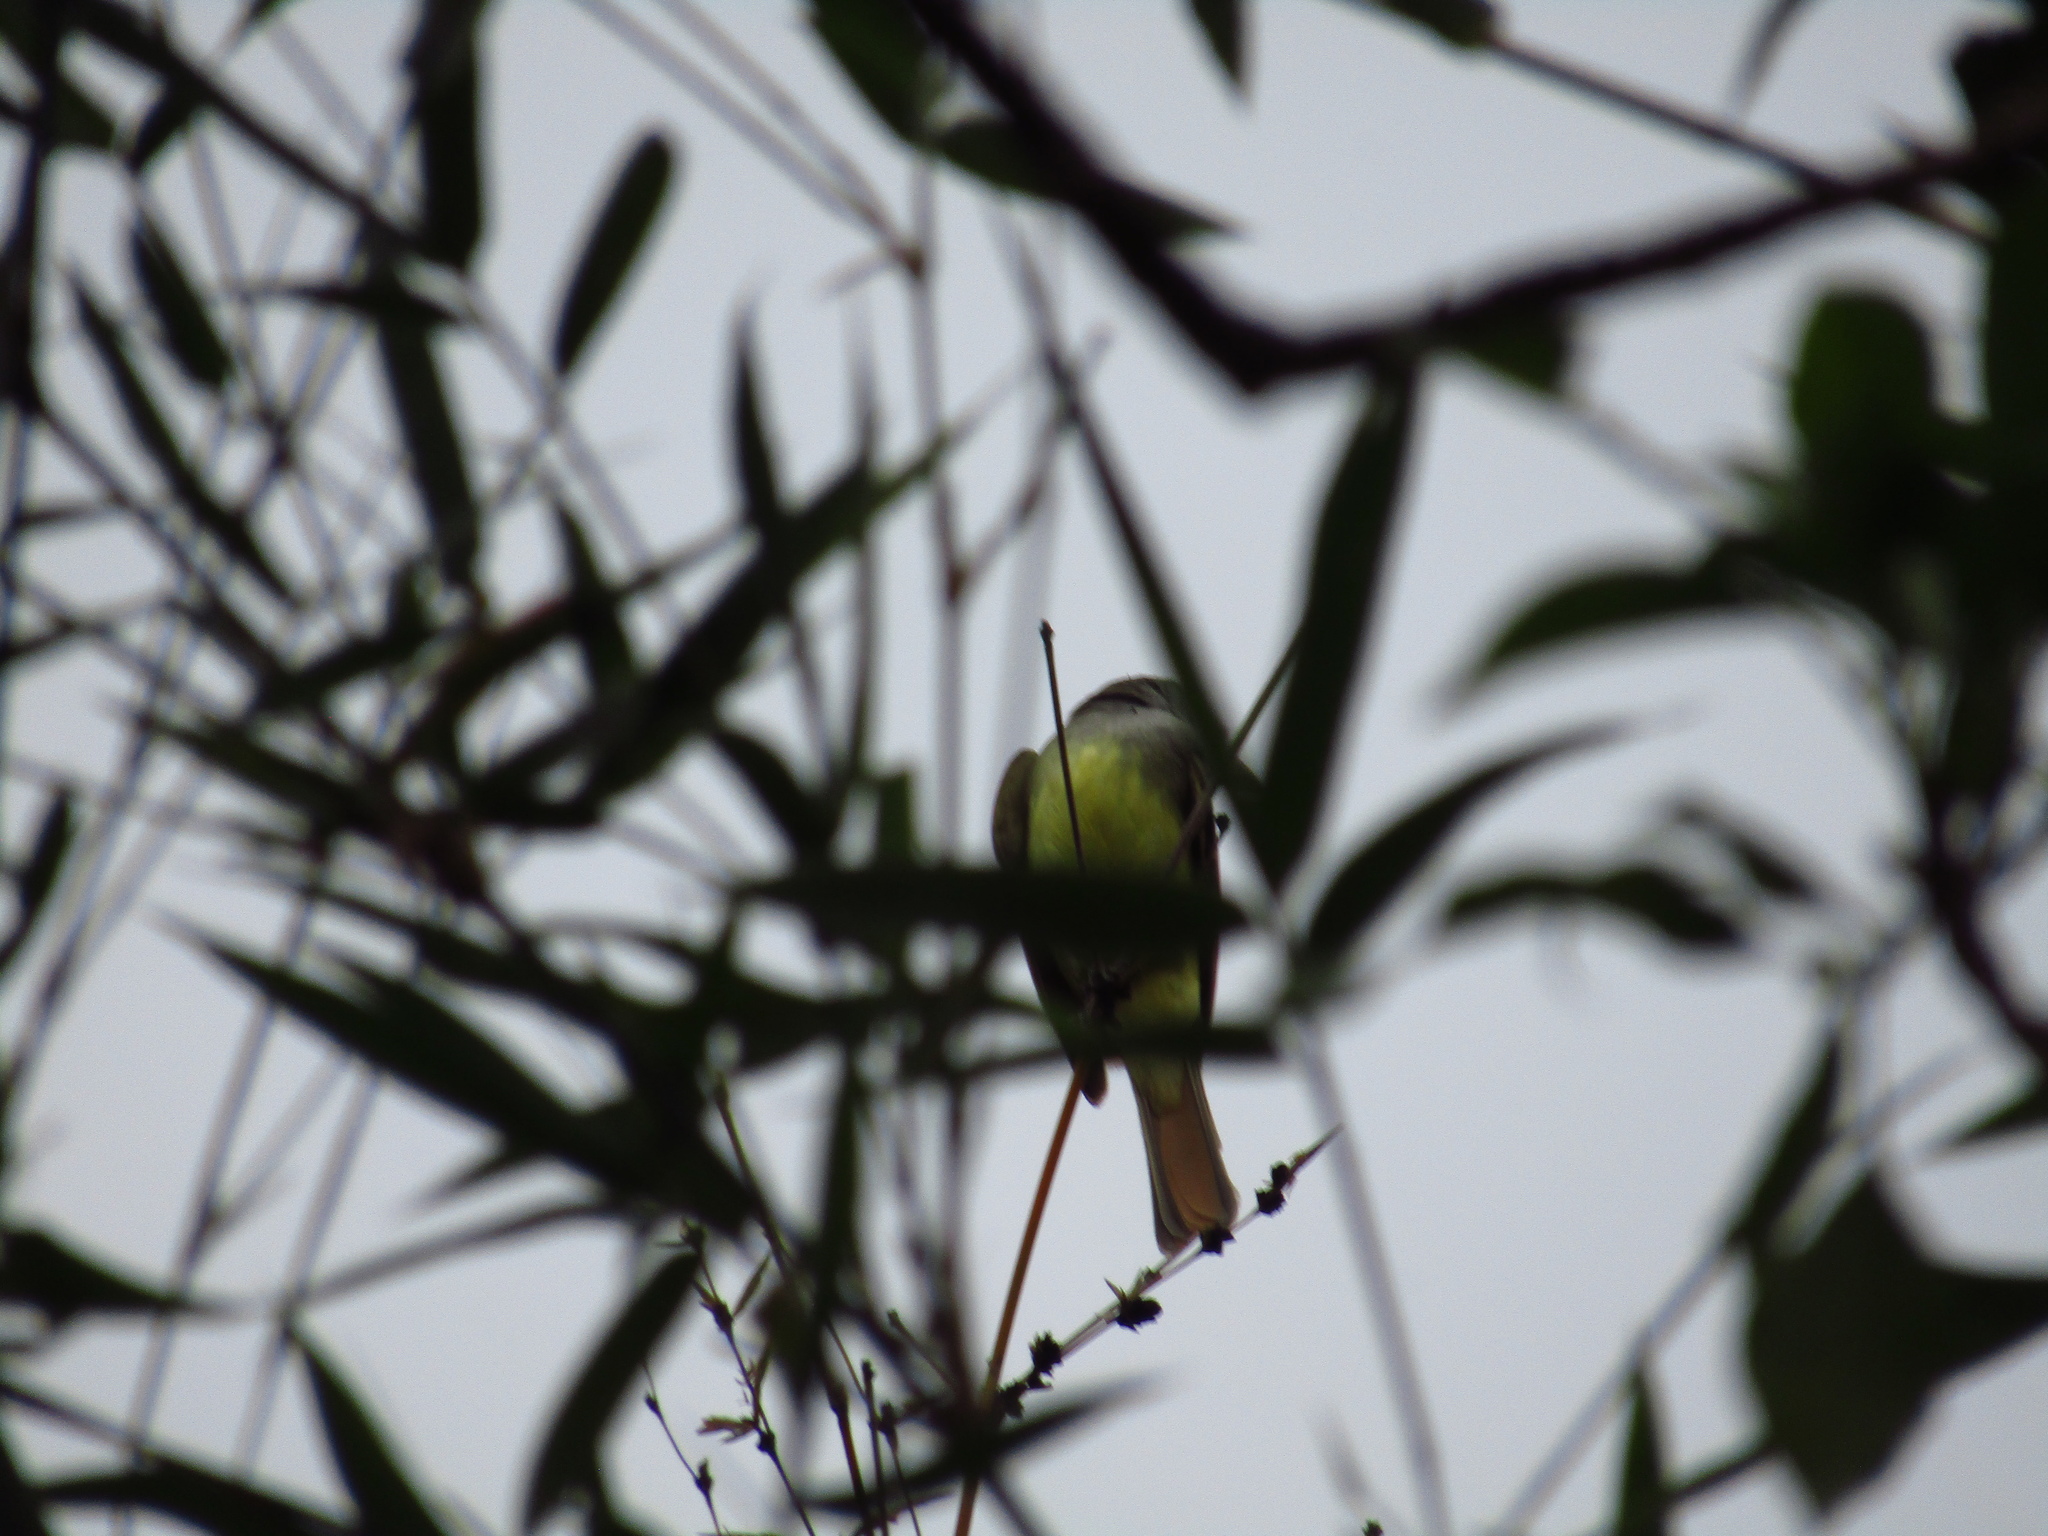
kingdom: Animalia
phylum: Chordata
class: Aves
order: Passeriformes
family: Tyrannidae
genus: Myiarchus
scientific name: Myiarchus crinitus
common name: Great crested flycatcher
